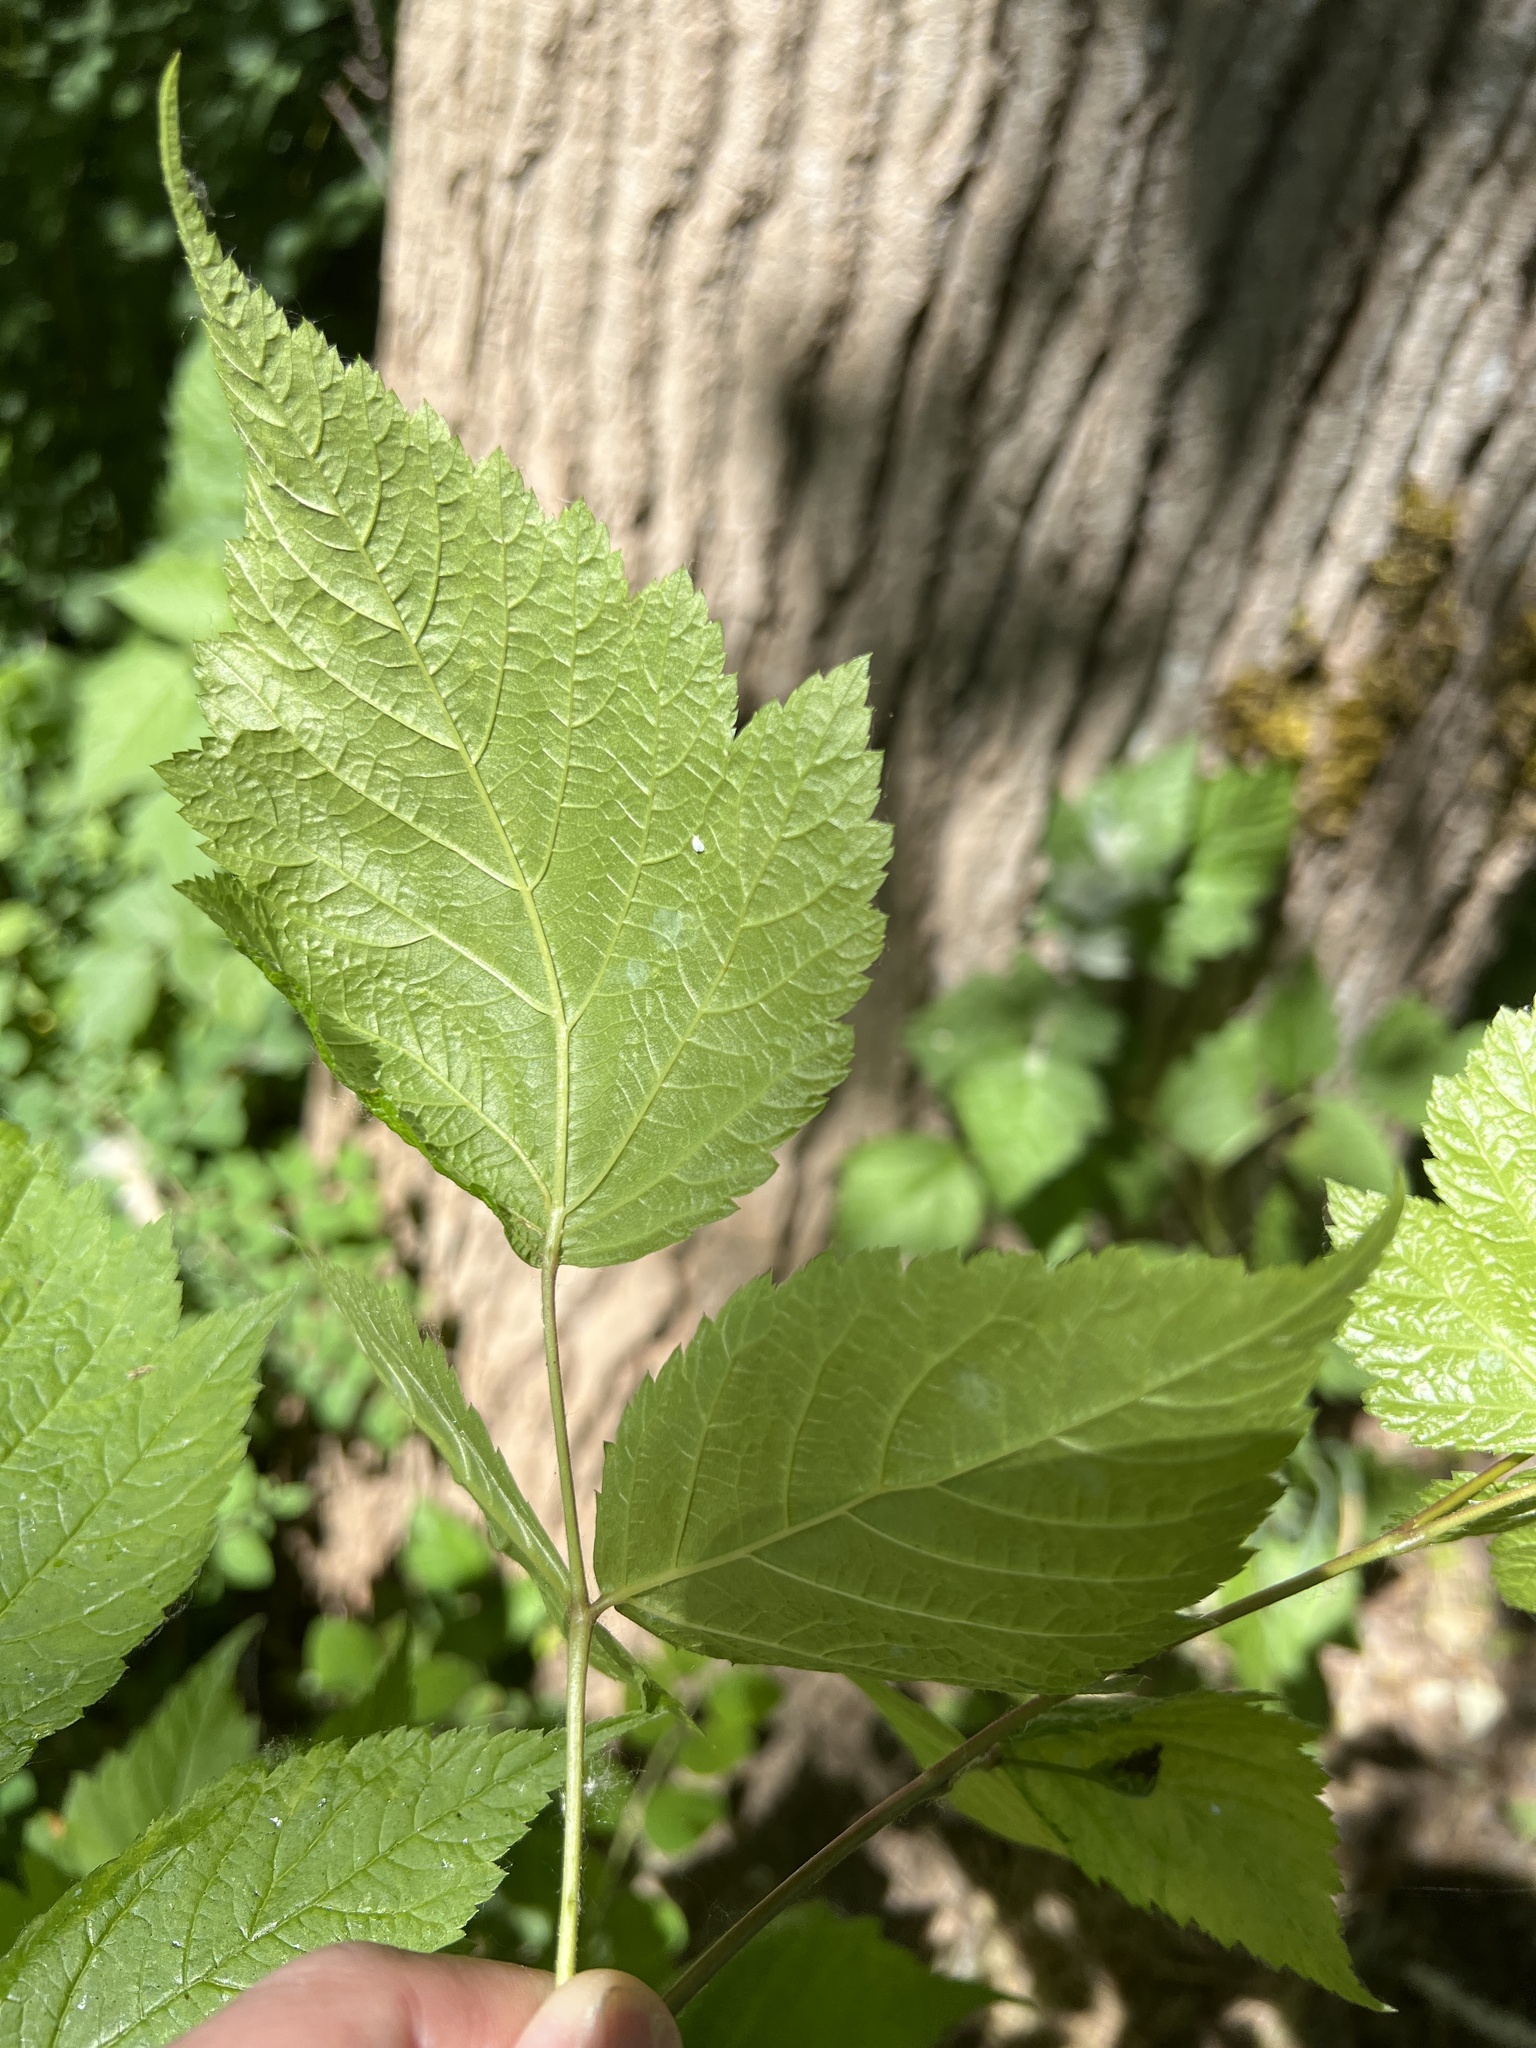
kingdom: Plantae
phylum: Tracheophyta
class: Magnoliopsida
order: Rosales
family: Rosaceae
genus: Rubus
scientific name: Rubus spectabilis
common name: Salmonberry
